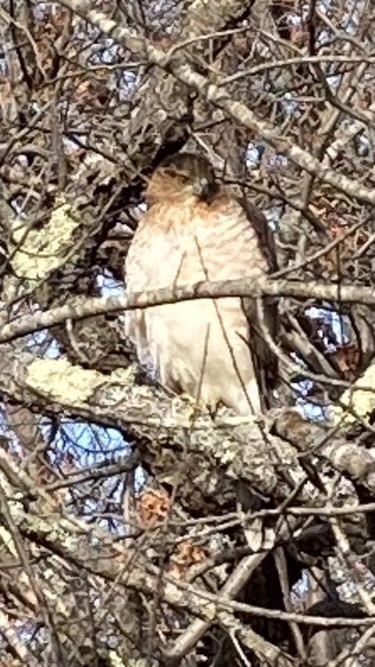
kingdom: Animalia
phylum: Chordata
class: Aves
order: Accipitriformes
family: Accipitridae
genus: Accipiter
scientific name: Accipiter cooperii
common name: Cooper's hawk
